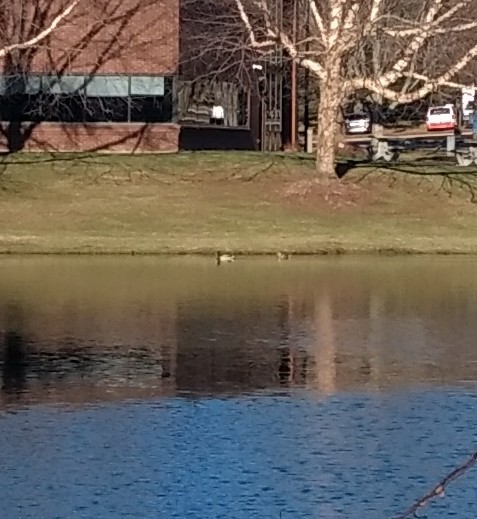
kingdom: Animalia
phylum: Chordata
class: Aves
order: Anseriformes
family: Anatidae
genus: Anas
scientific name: Anas platyrhynchos
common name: Mallard
